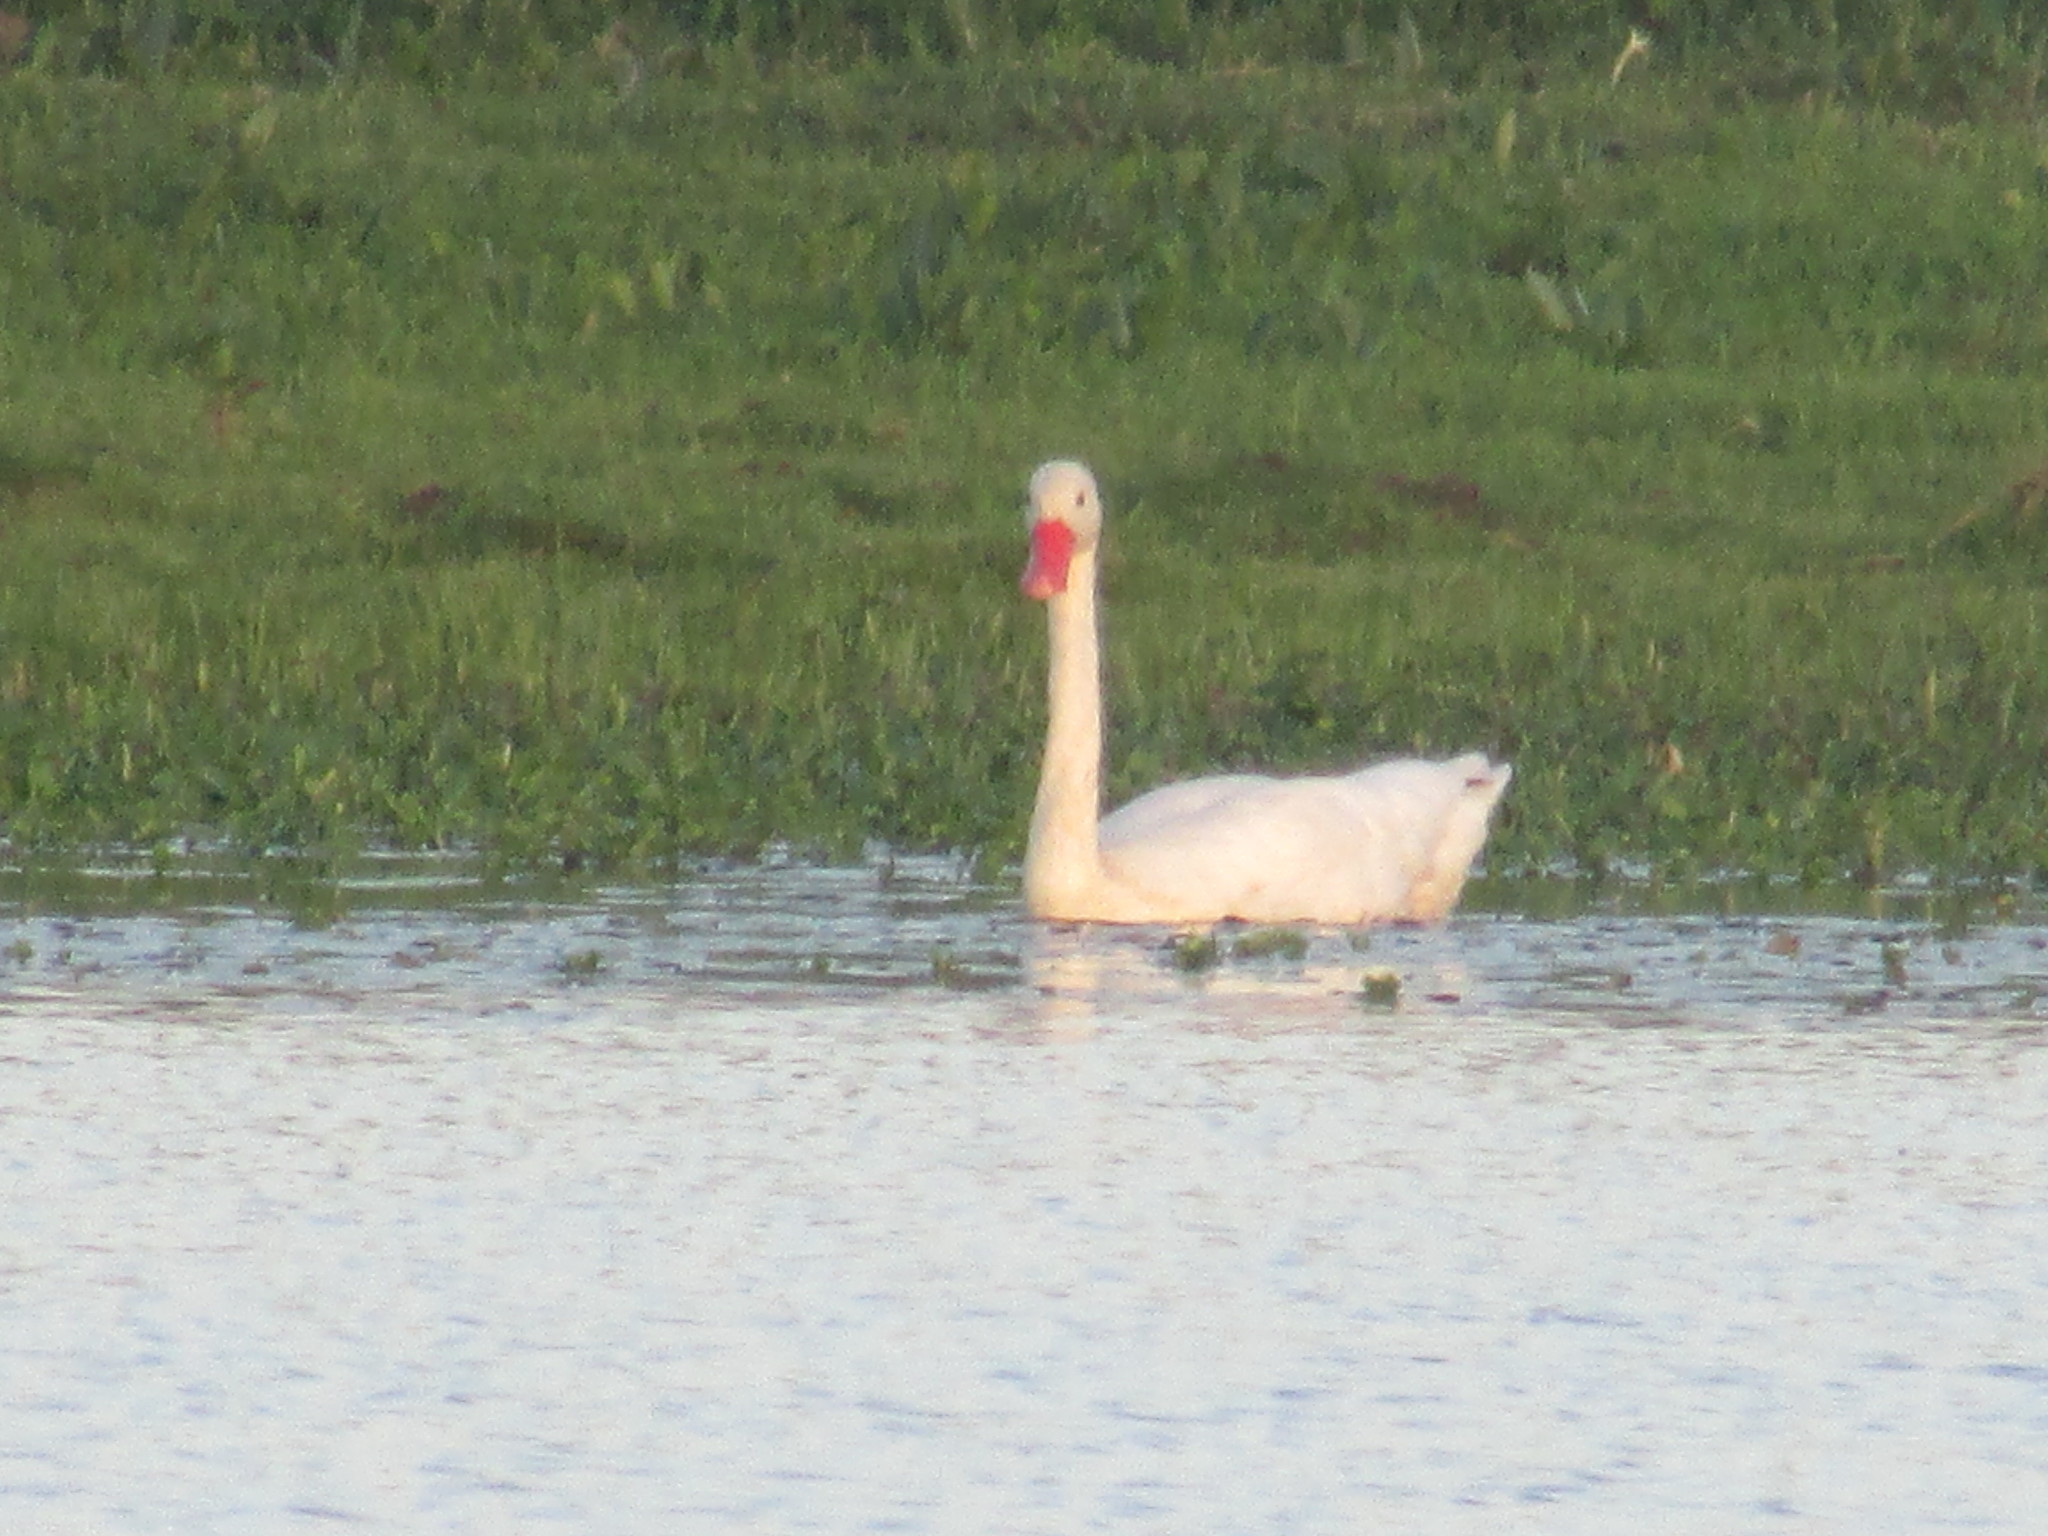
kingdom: Animalia
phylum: Chordata
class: Aves
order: Anseriformes
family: Anatidae
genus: Coscoroba
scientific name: Coscoroba coscoroba
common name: Coscoroba swan
